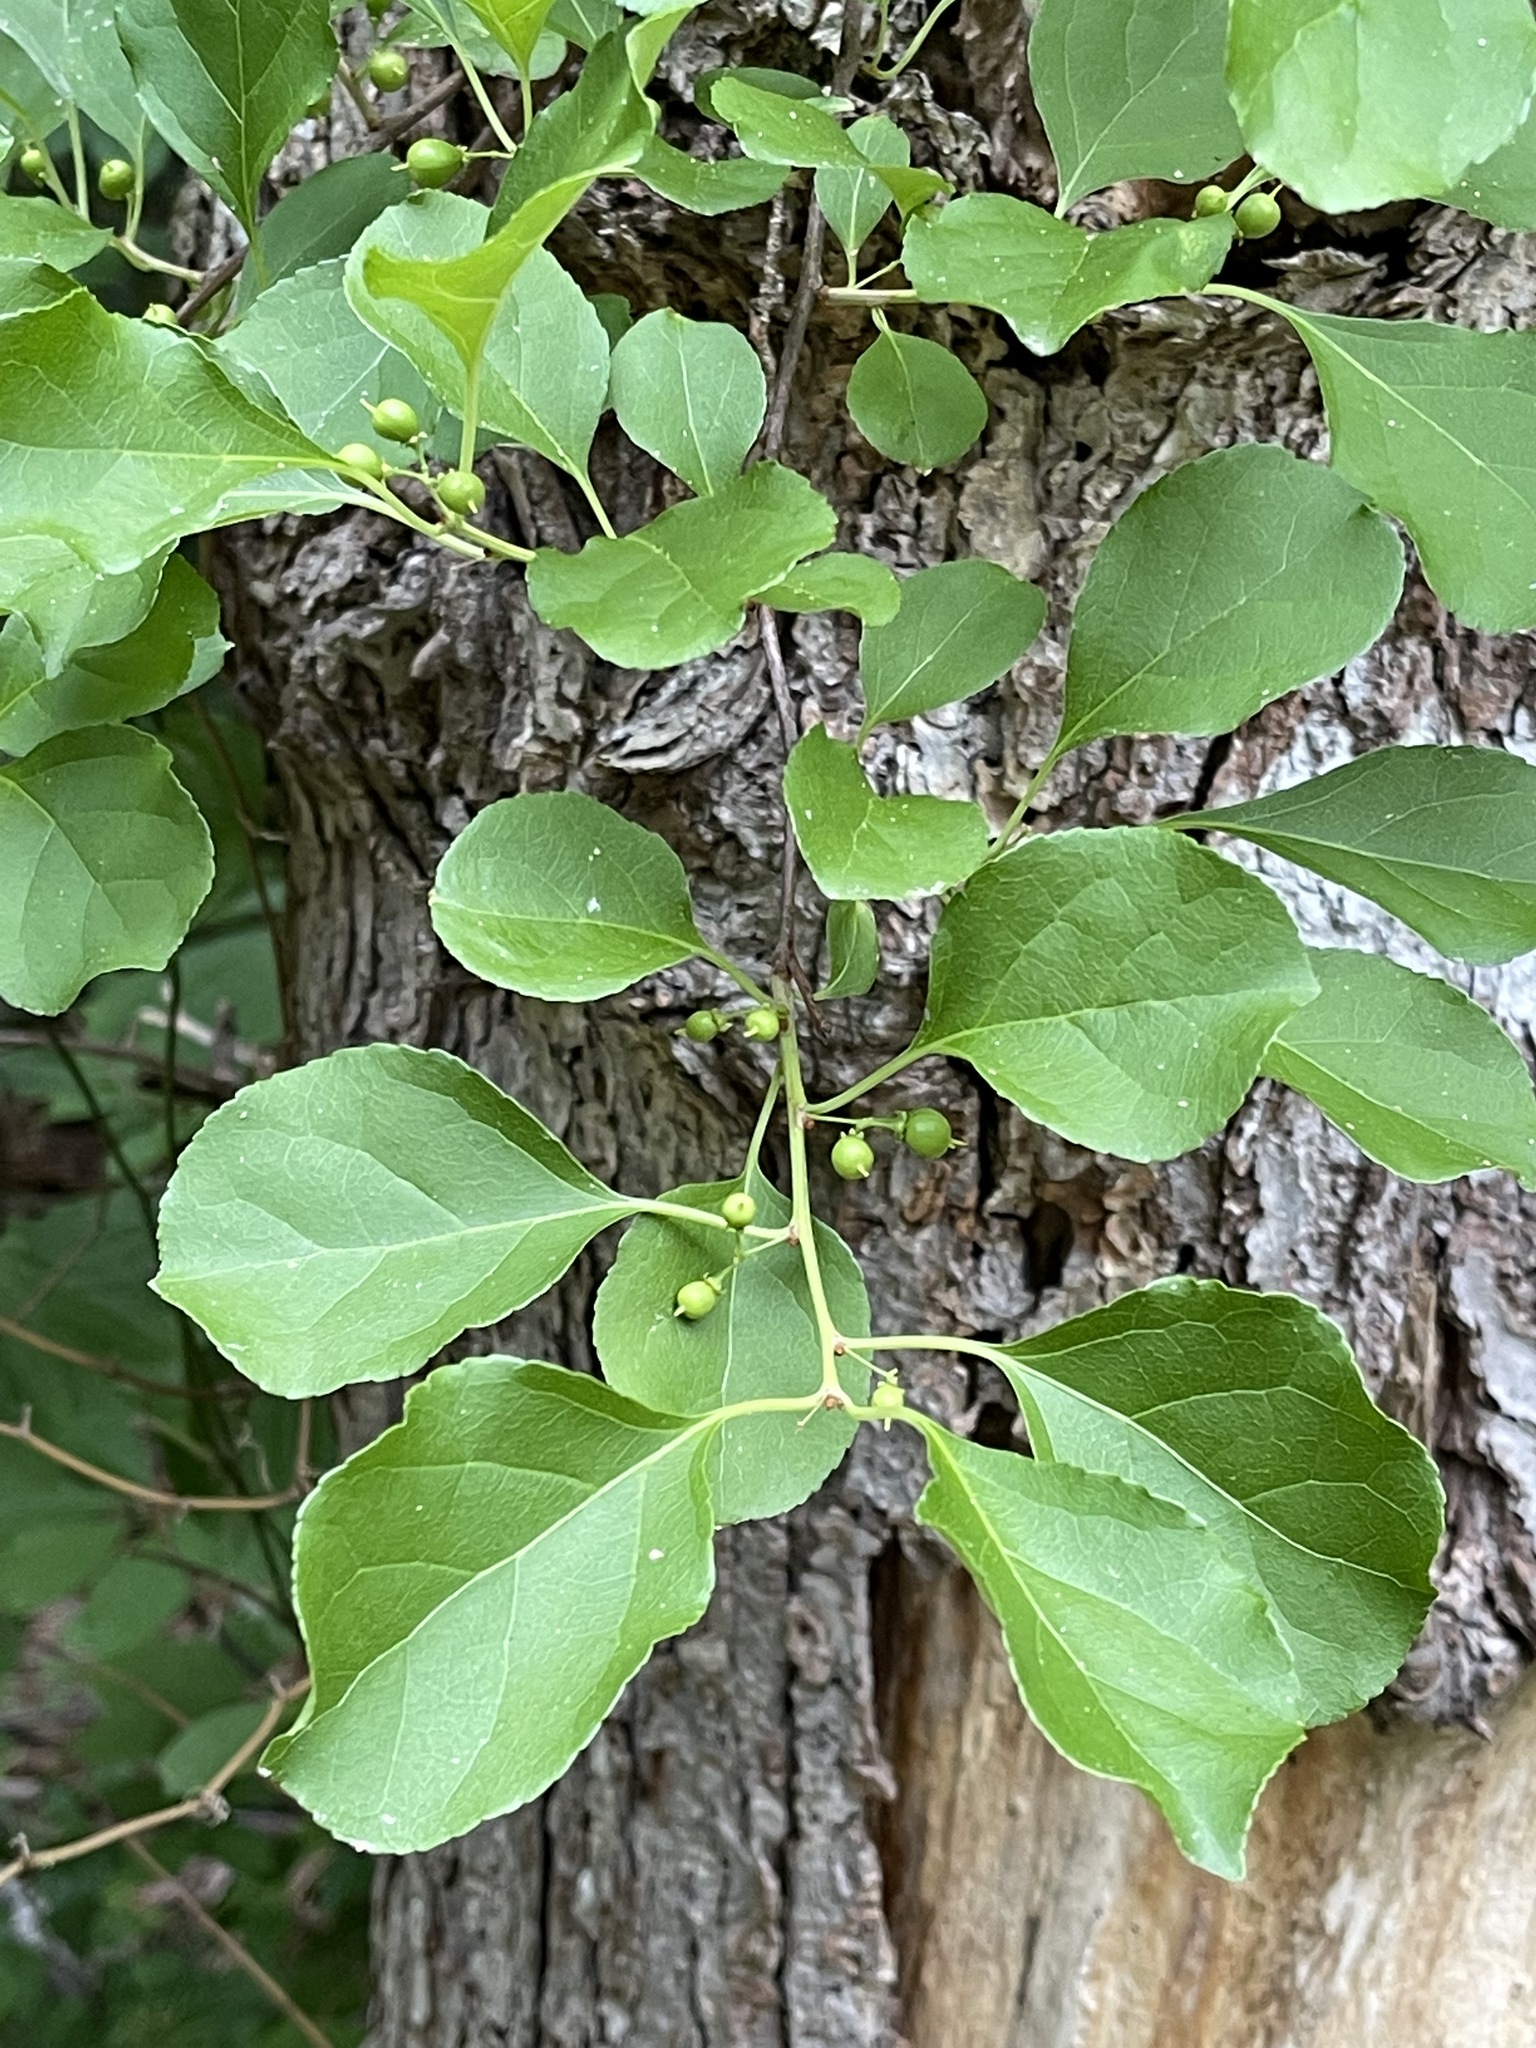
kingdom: Plantae
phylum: Tracheophyta
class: Magnoliopsida
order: Celastrales
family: Celastraceae
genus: Celastrus
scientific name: Celastrus orbiculatus
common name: Oriental bittersweet
